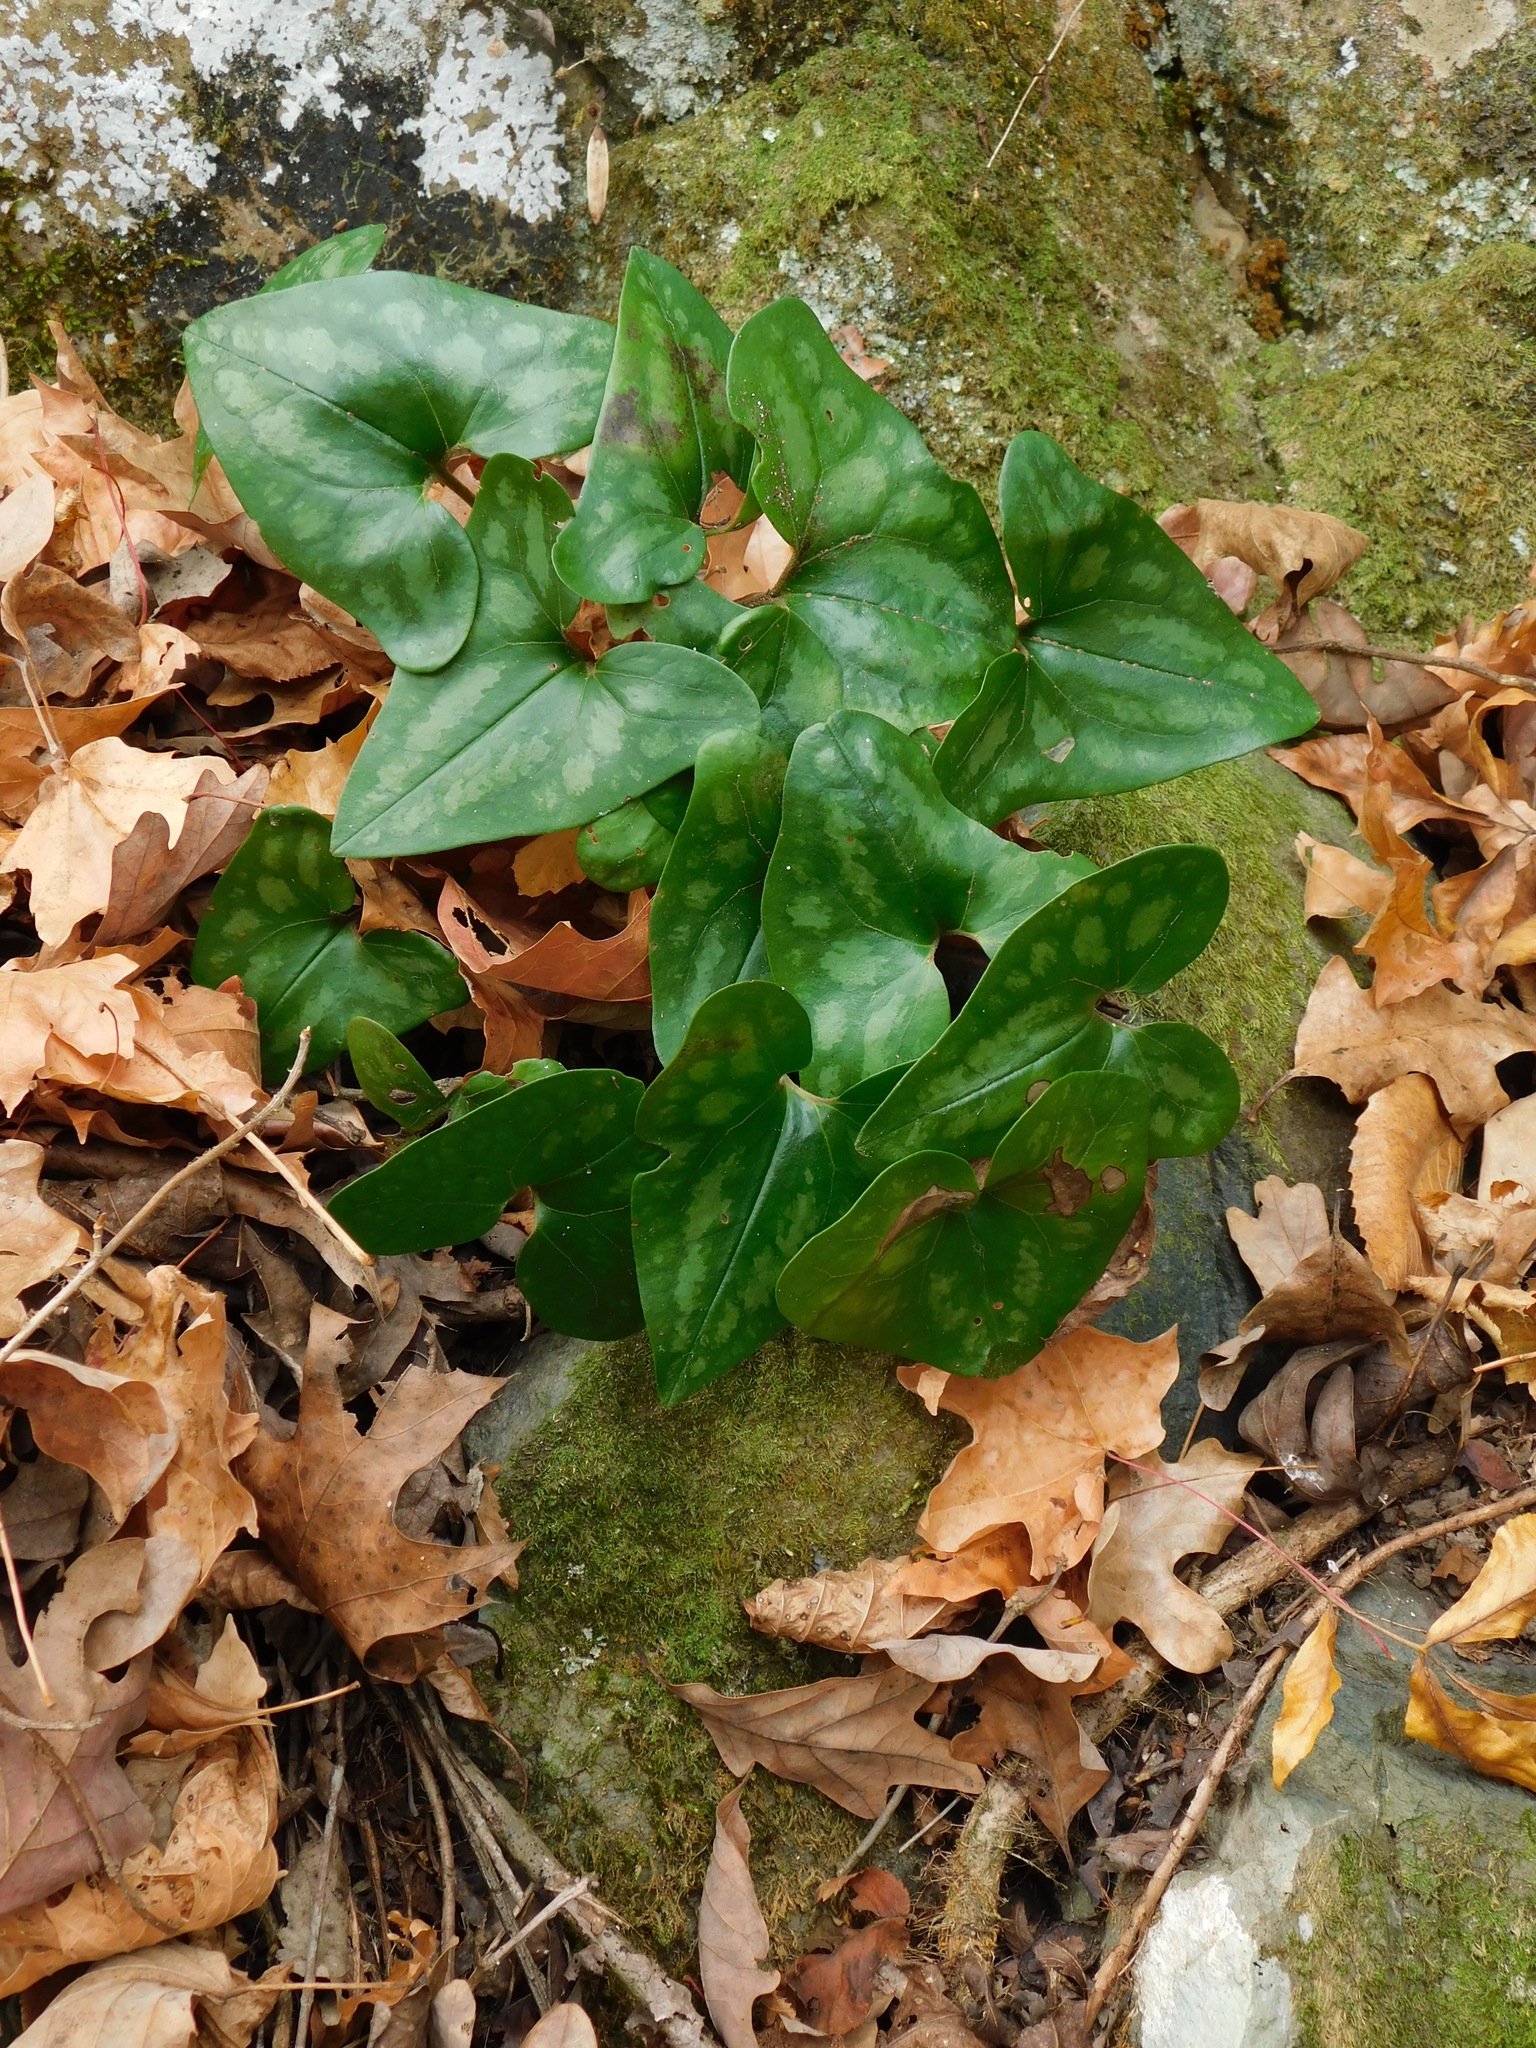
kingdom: Plantae
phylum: Tracheophyta
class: Magnoliopsida
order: Piperales
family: Aristolochiaceae
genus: Hexastylis
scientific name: Hexastylis arifolia
